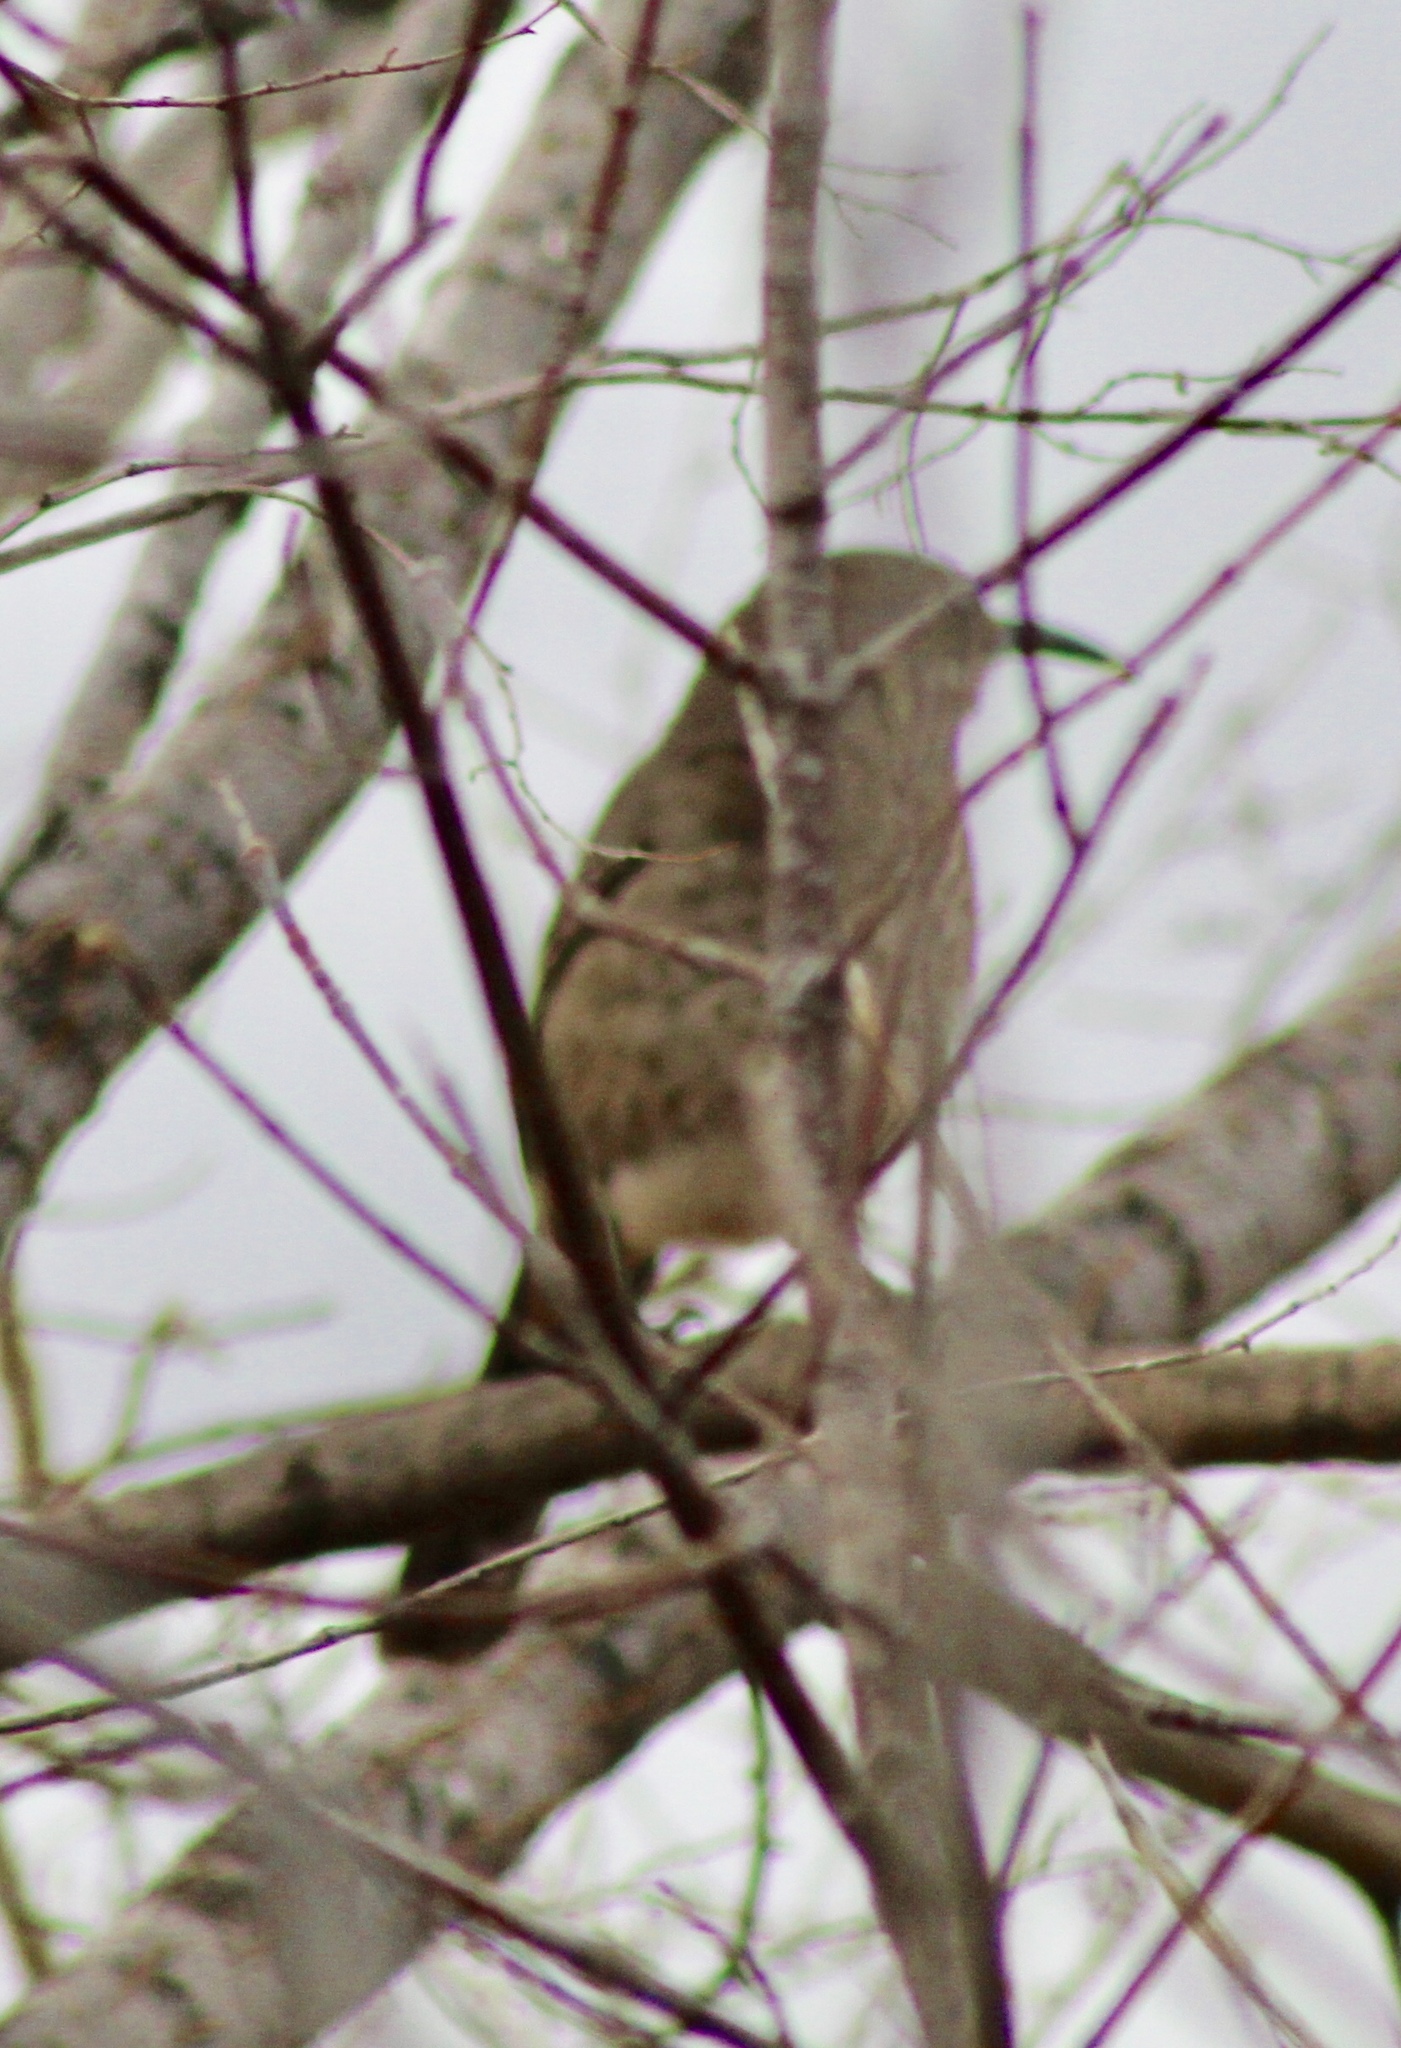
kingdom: Animalia
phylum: Chordata
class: Aves
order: Passeriformes
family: Mimidae
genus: Toxostoma
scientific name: Toxostoma curvirostre
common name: Curve-billed thrasher
